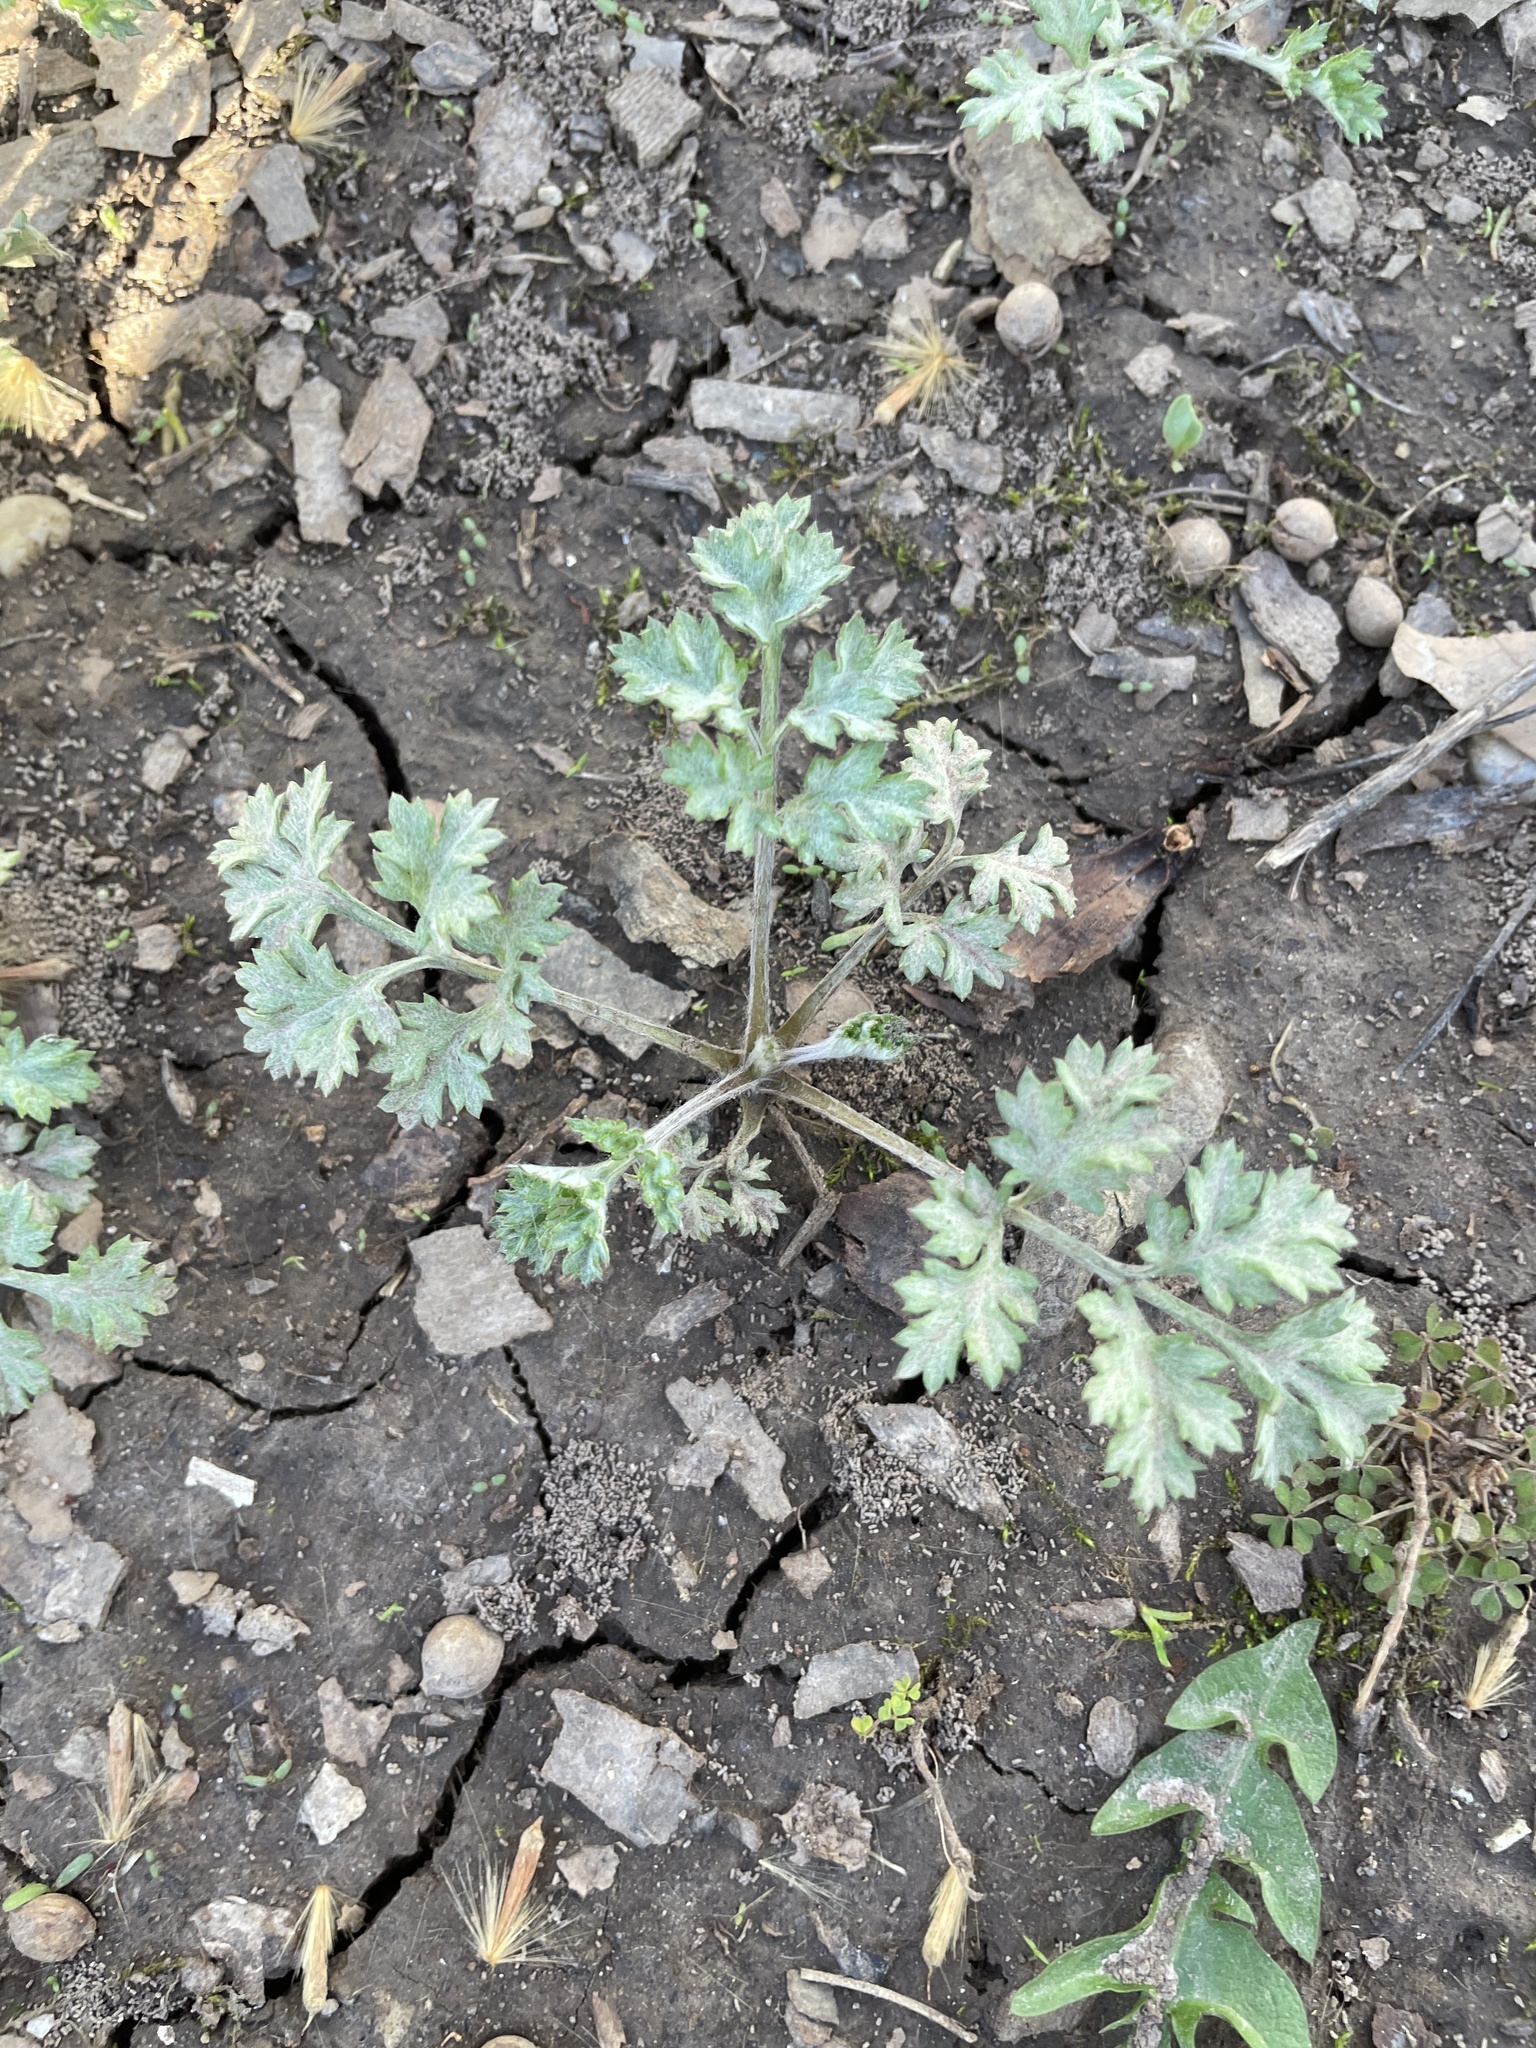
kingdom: Plantae
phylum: Tracheophyta
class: Magnoliopsida
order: Asterales
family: Asteraceae
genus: Artemisia
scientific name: Artemisia vulgaris
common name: Mugwort
